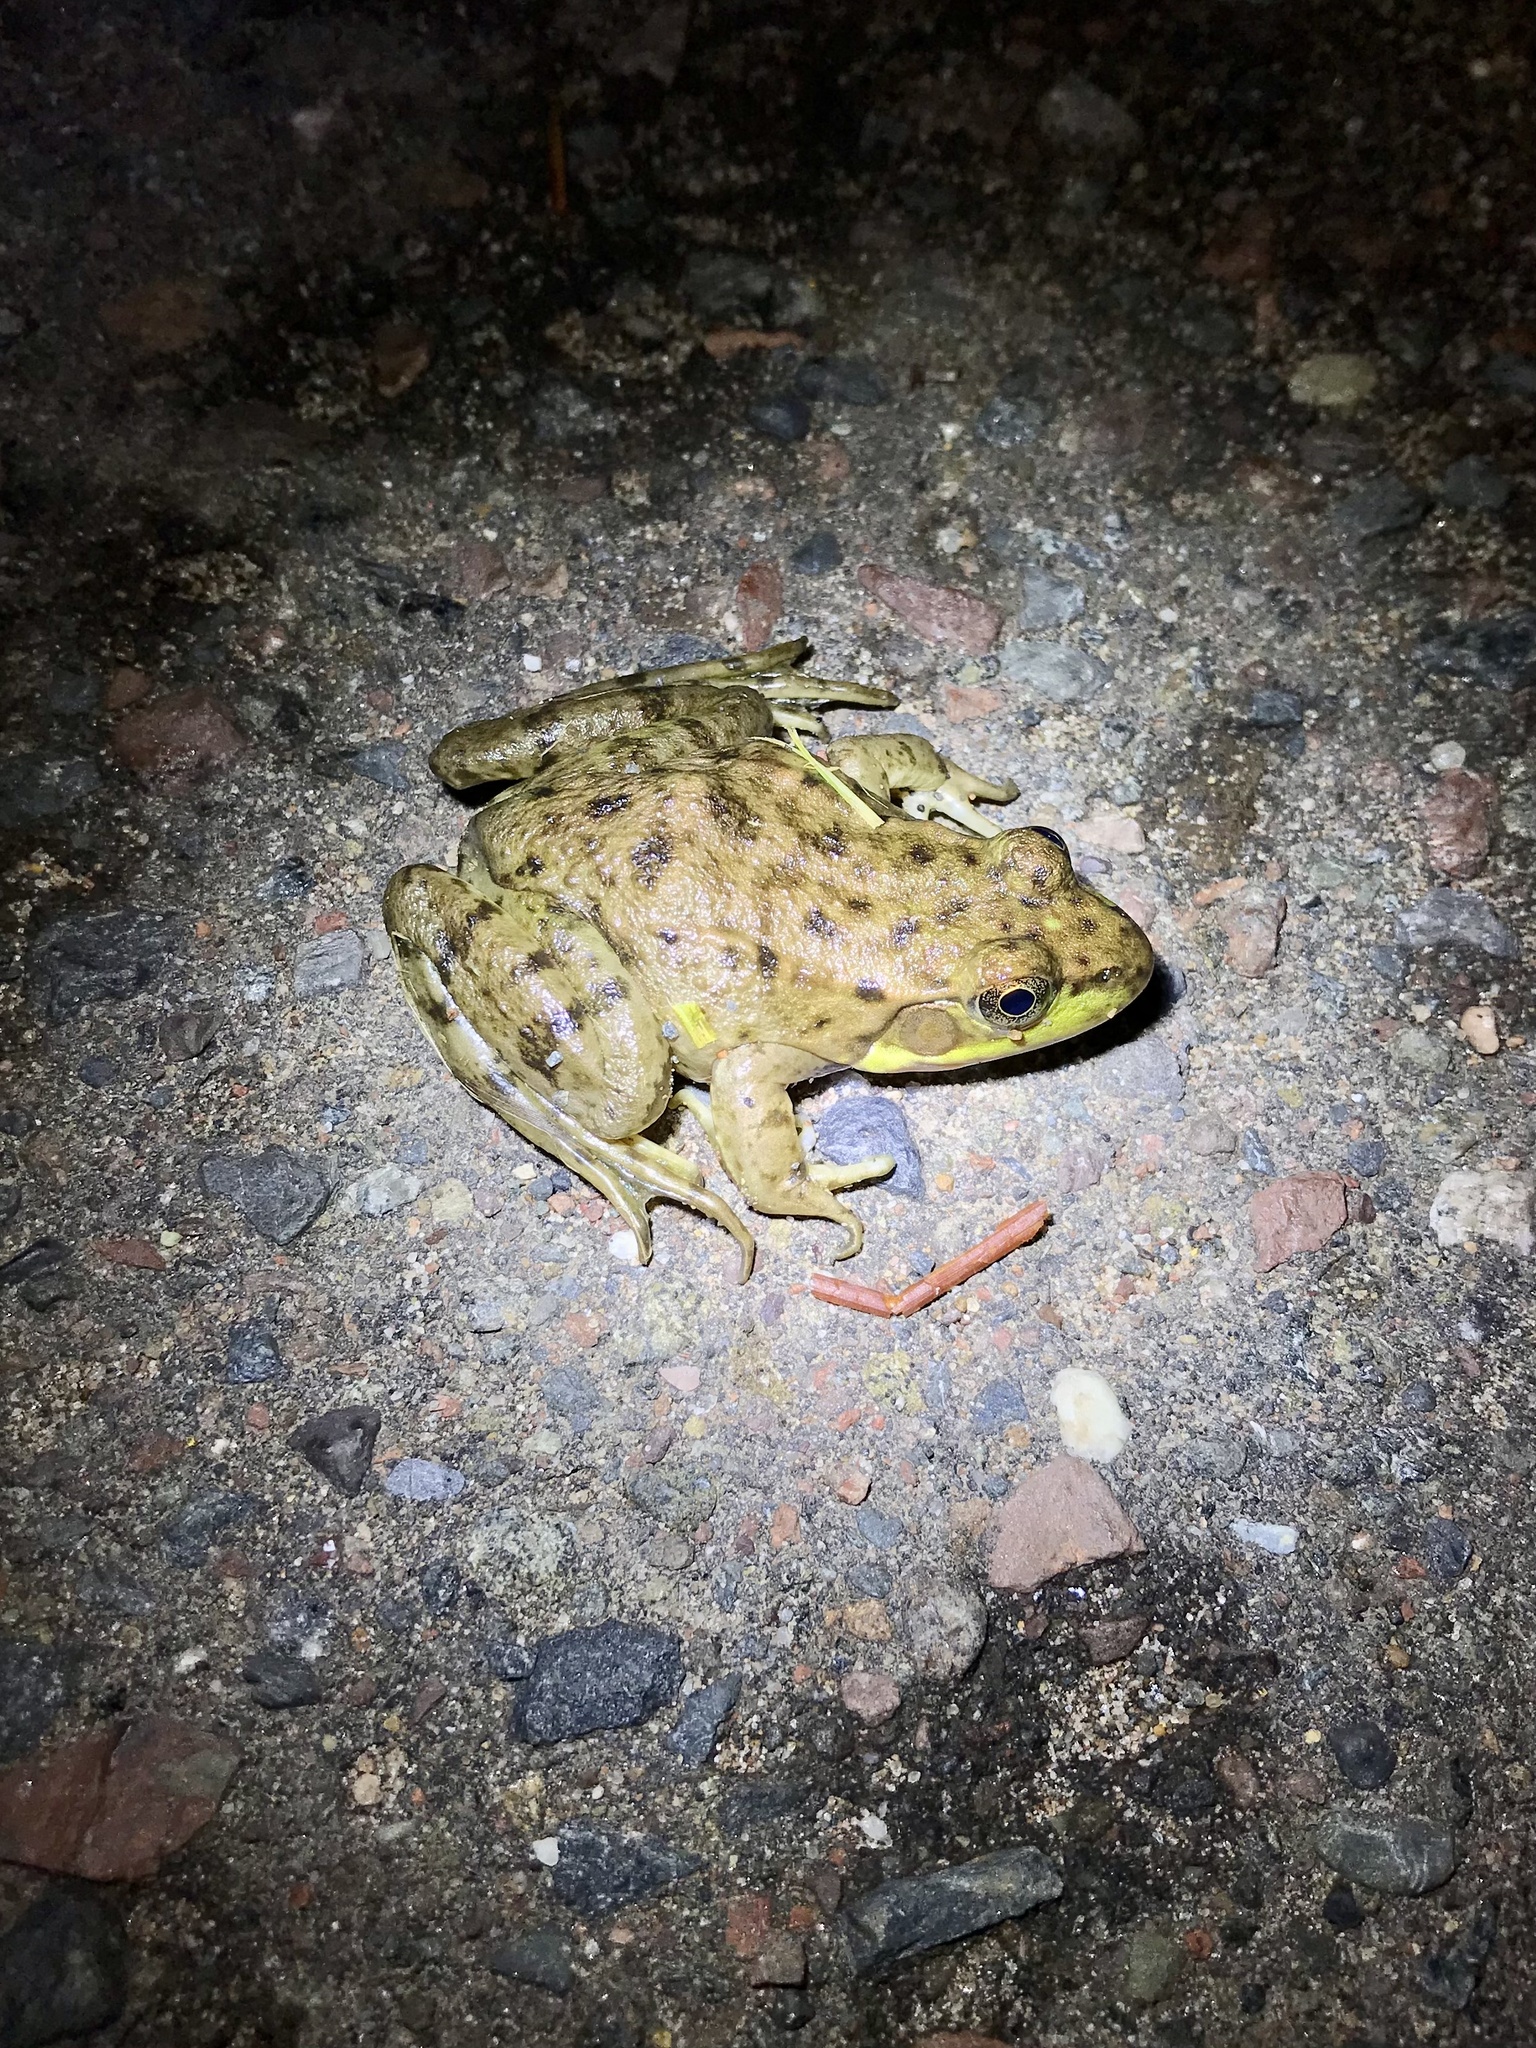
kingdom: Animalia
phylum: Chordata
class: Amphibia
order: Anura
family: Ranidae
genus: Lithobates
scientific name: Lithobates clamitans
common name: Green frog
